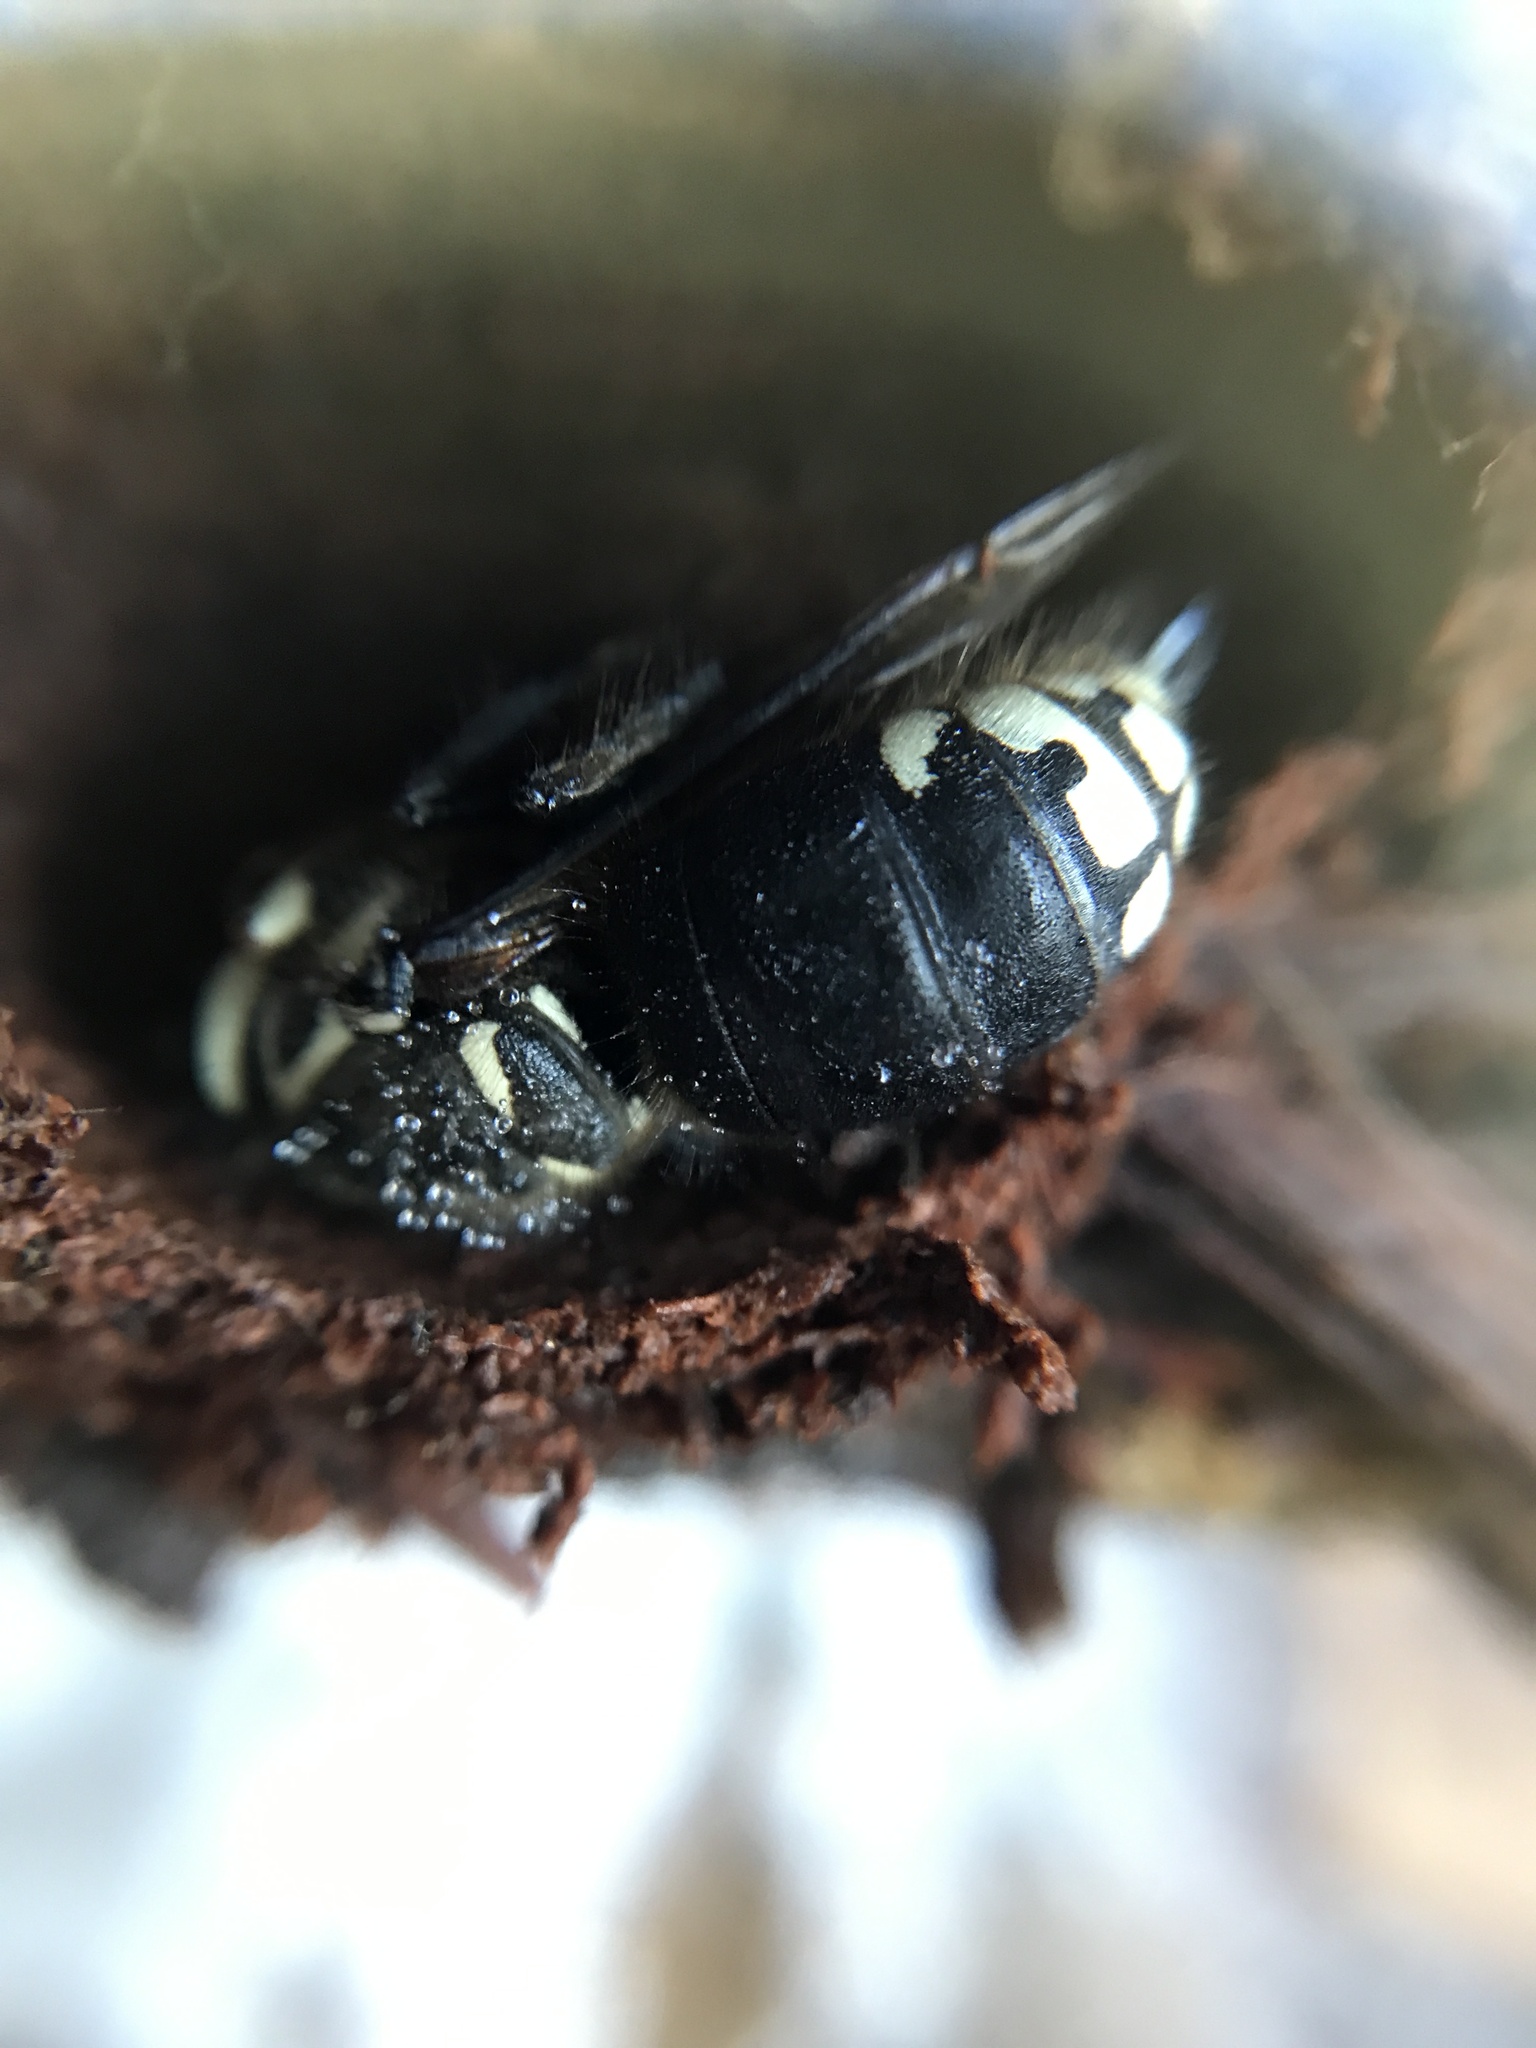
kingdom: Animalia
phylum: Arthropoda
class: Insecta
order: Hymenoptera
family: Vespidae
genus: Dolichovespula
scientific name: Dolichovespula maculata
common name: Bald-faced hornet
